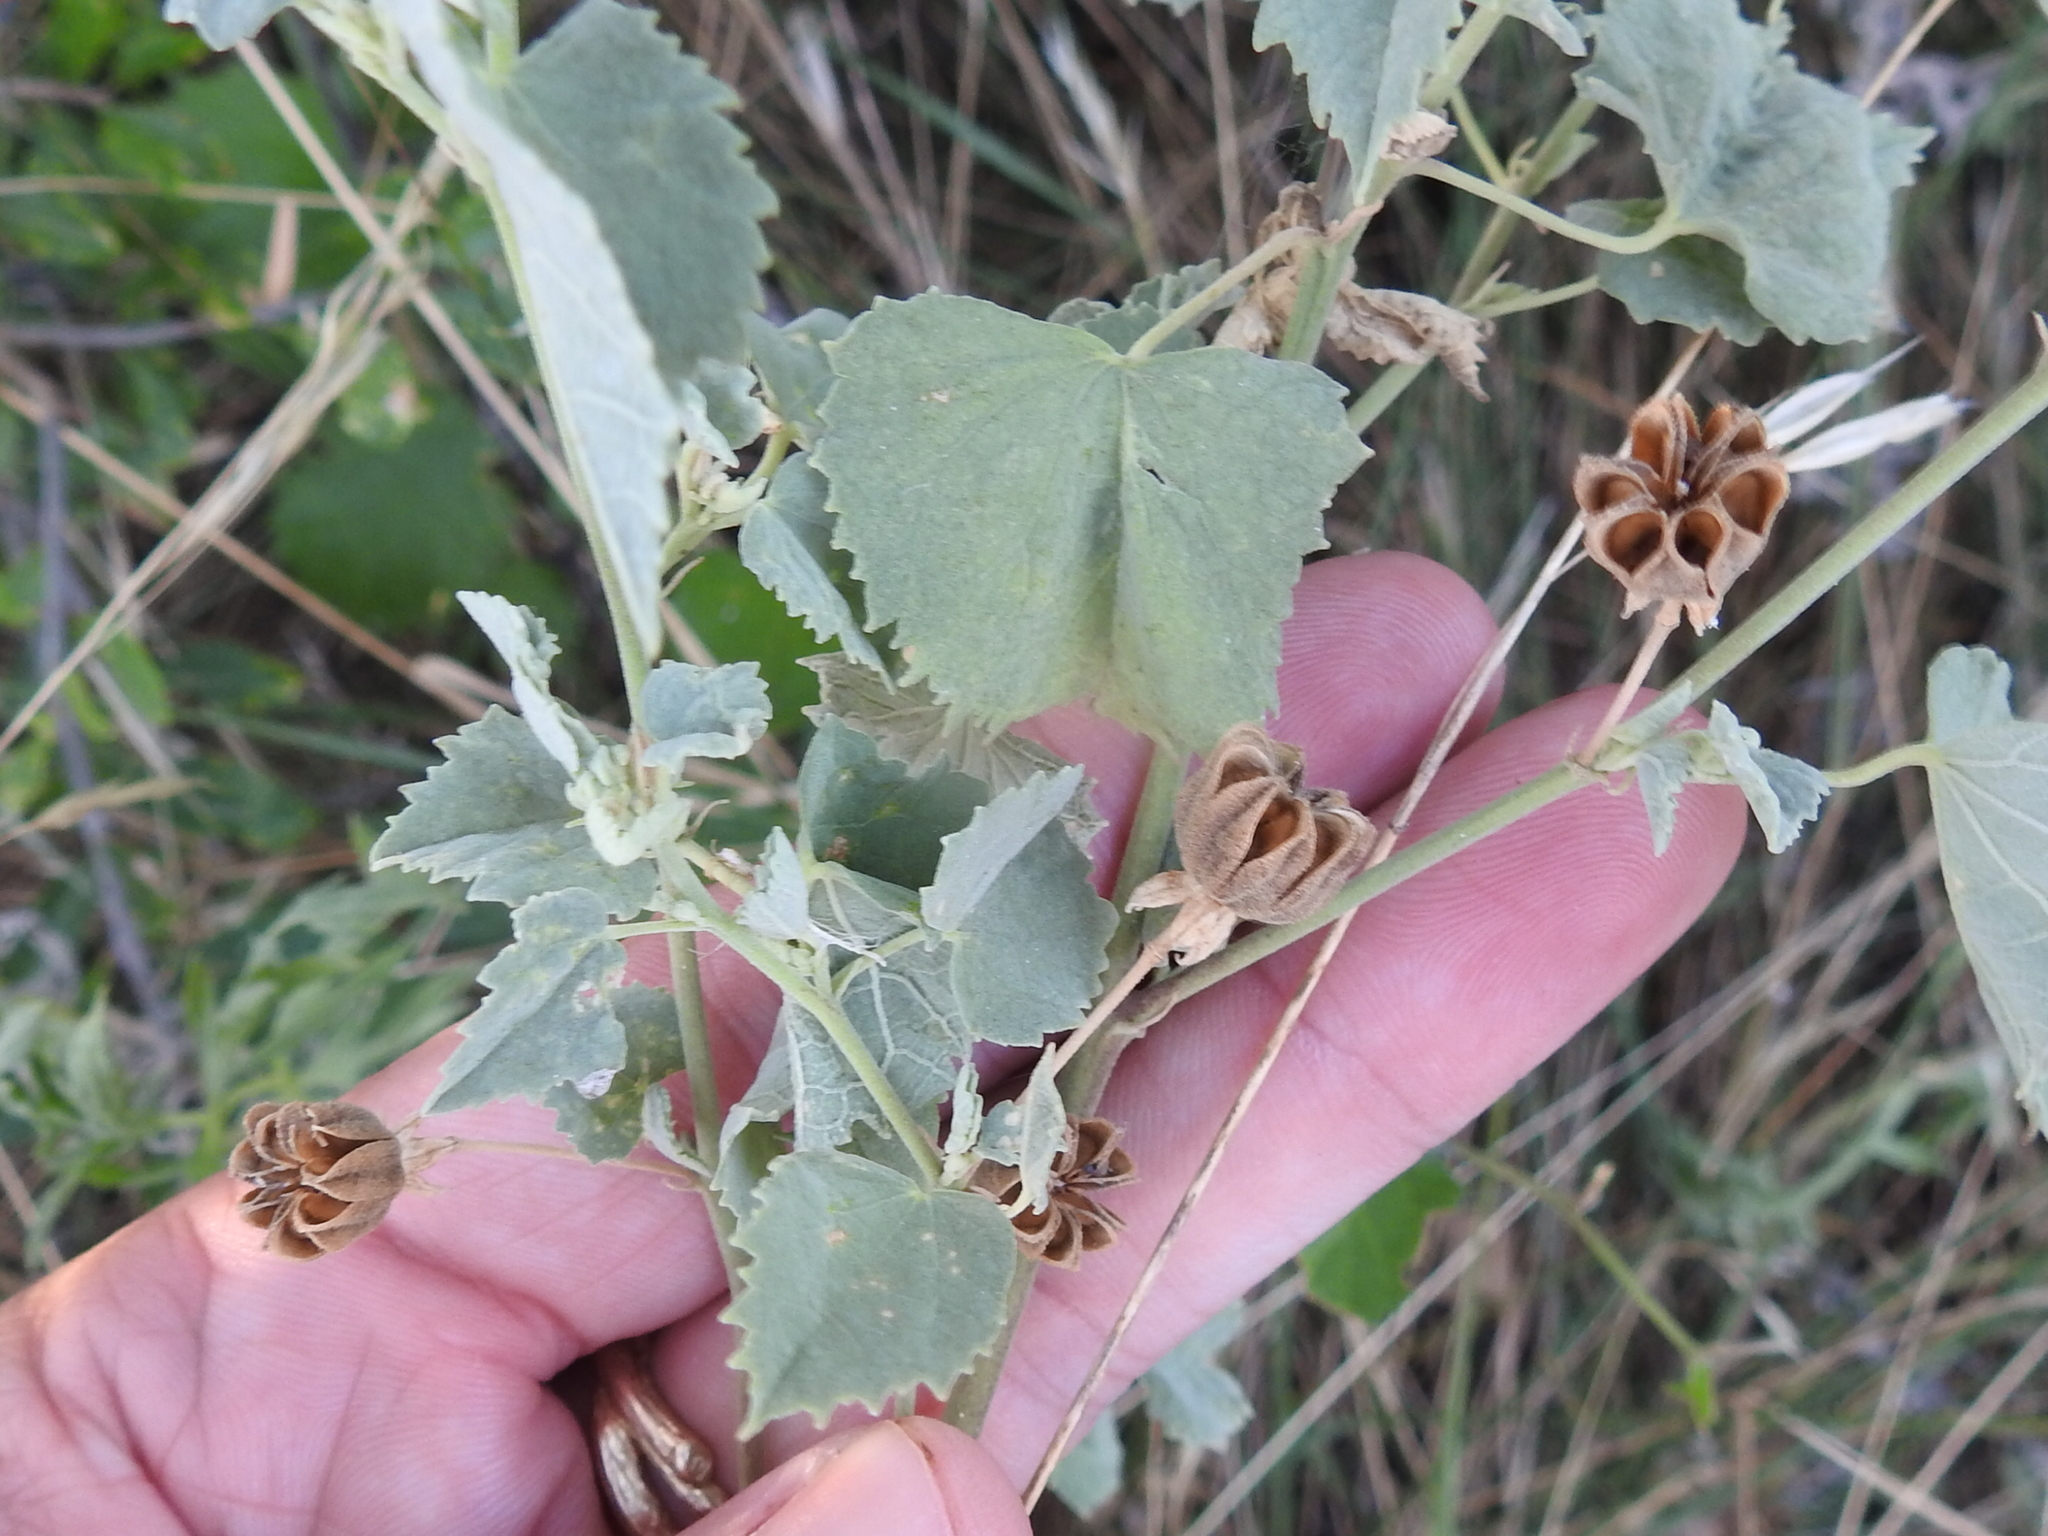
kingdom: Plantae
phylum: Tracheophyta
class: Magnoliopsida
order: Malvales
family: Malvaceae
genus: Abutilon
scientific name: Abutilon fruticosum
